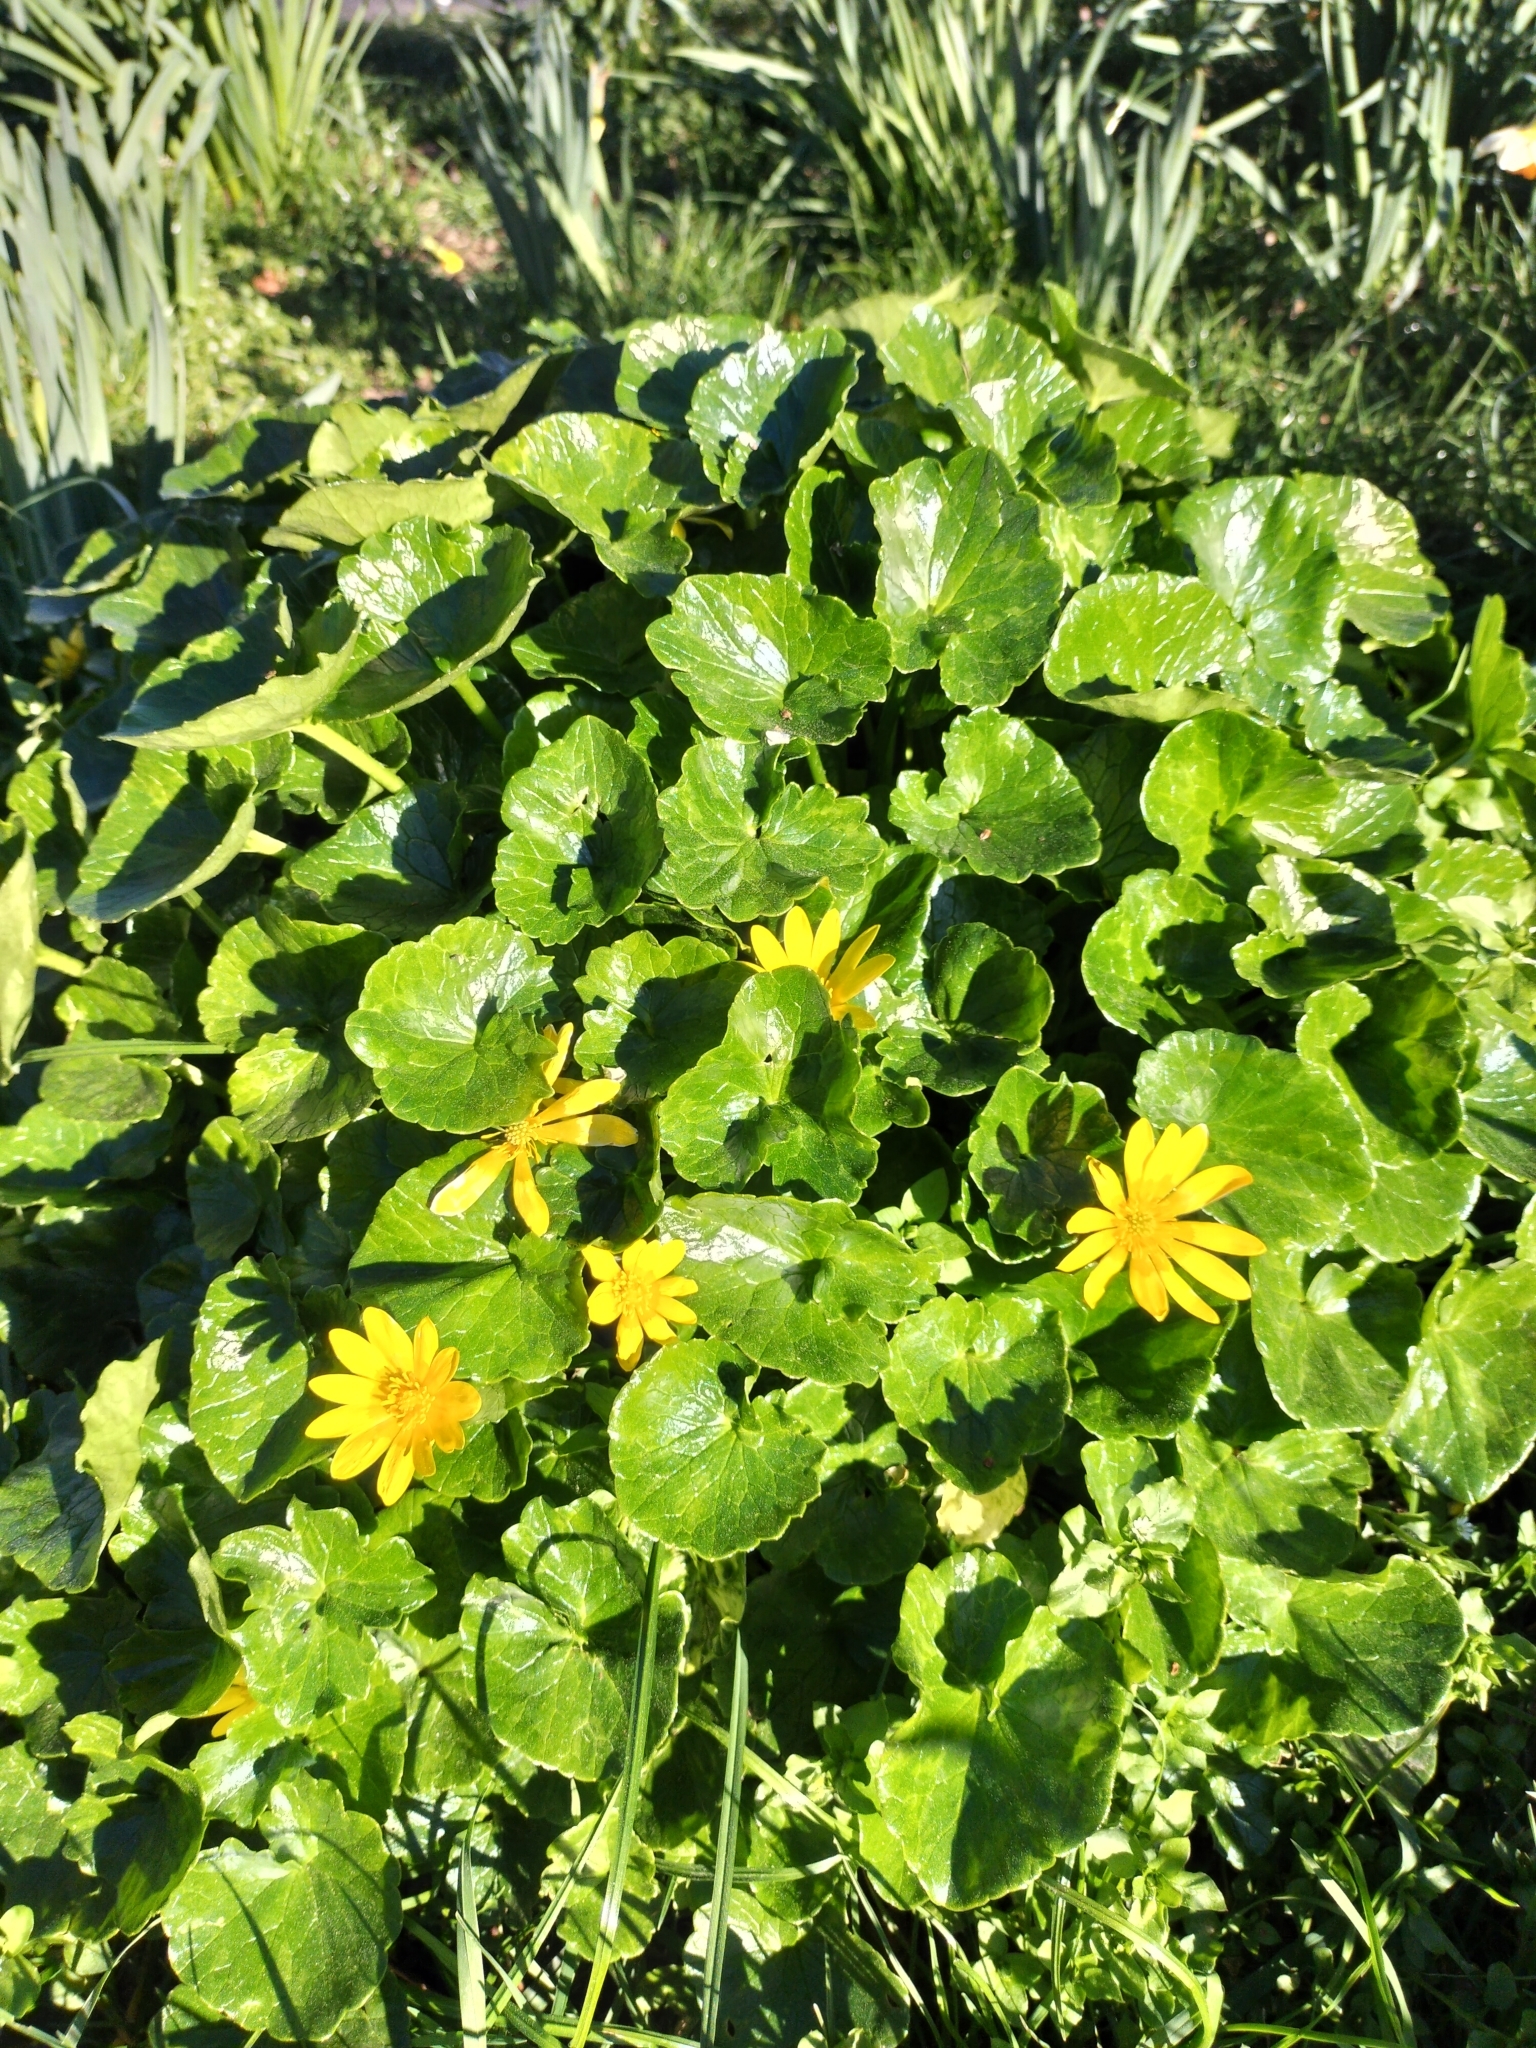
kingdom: Plantae
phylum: Tracheophyta
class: Magnoliopsida
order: Ranunculales
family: Ranunculaceae
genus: Ficaria
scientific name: Ficaria verna
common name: Lesser celandine
